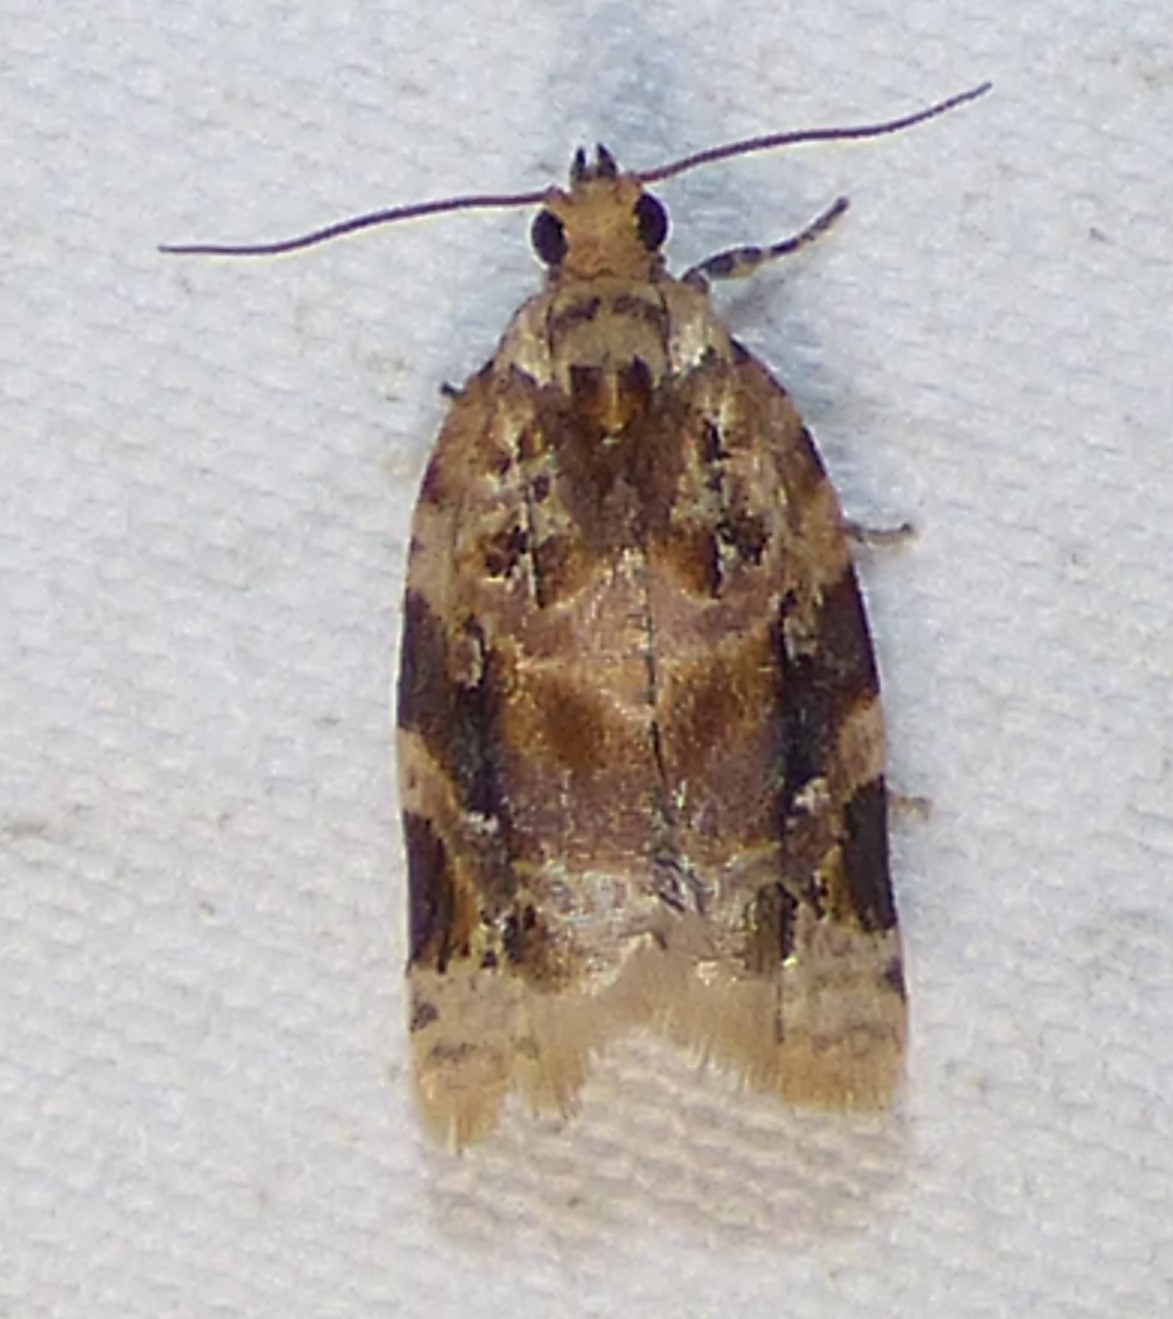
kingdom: Animalia
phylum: Arthropoda
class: Insecta
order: Lepidoptera
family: Tortricidae
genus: Argyrotaenia
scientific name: Argyrotaenia velutinana
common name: Red-banded leafroller moth
